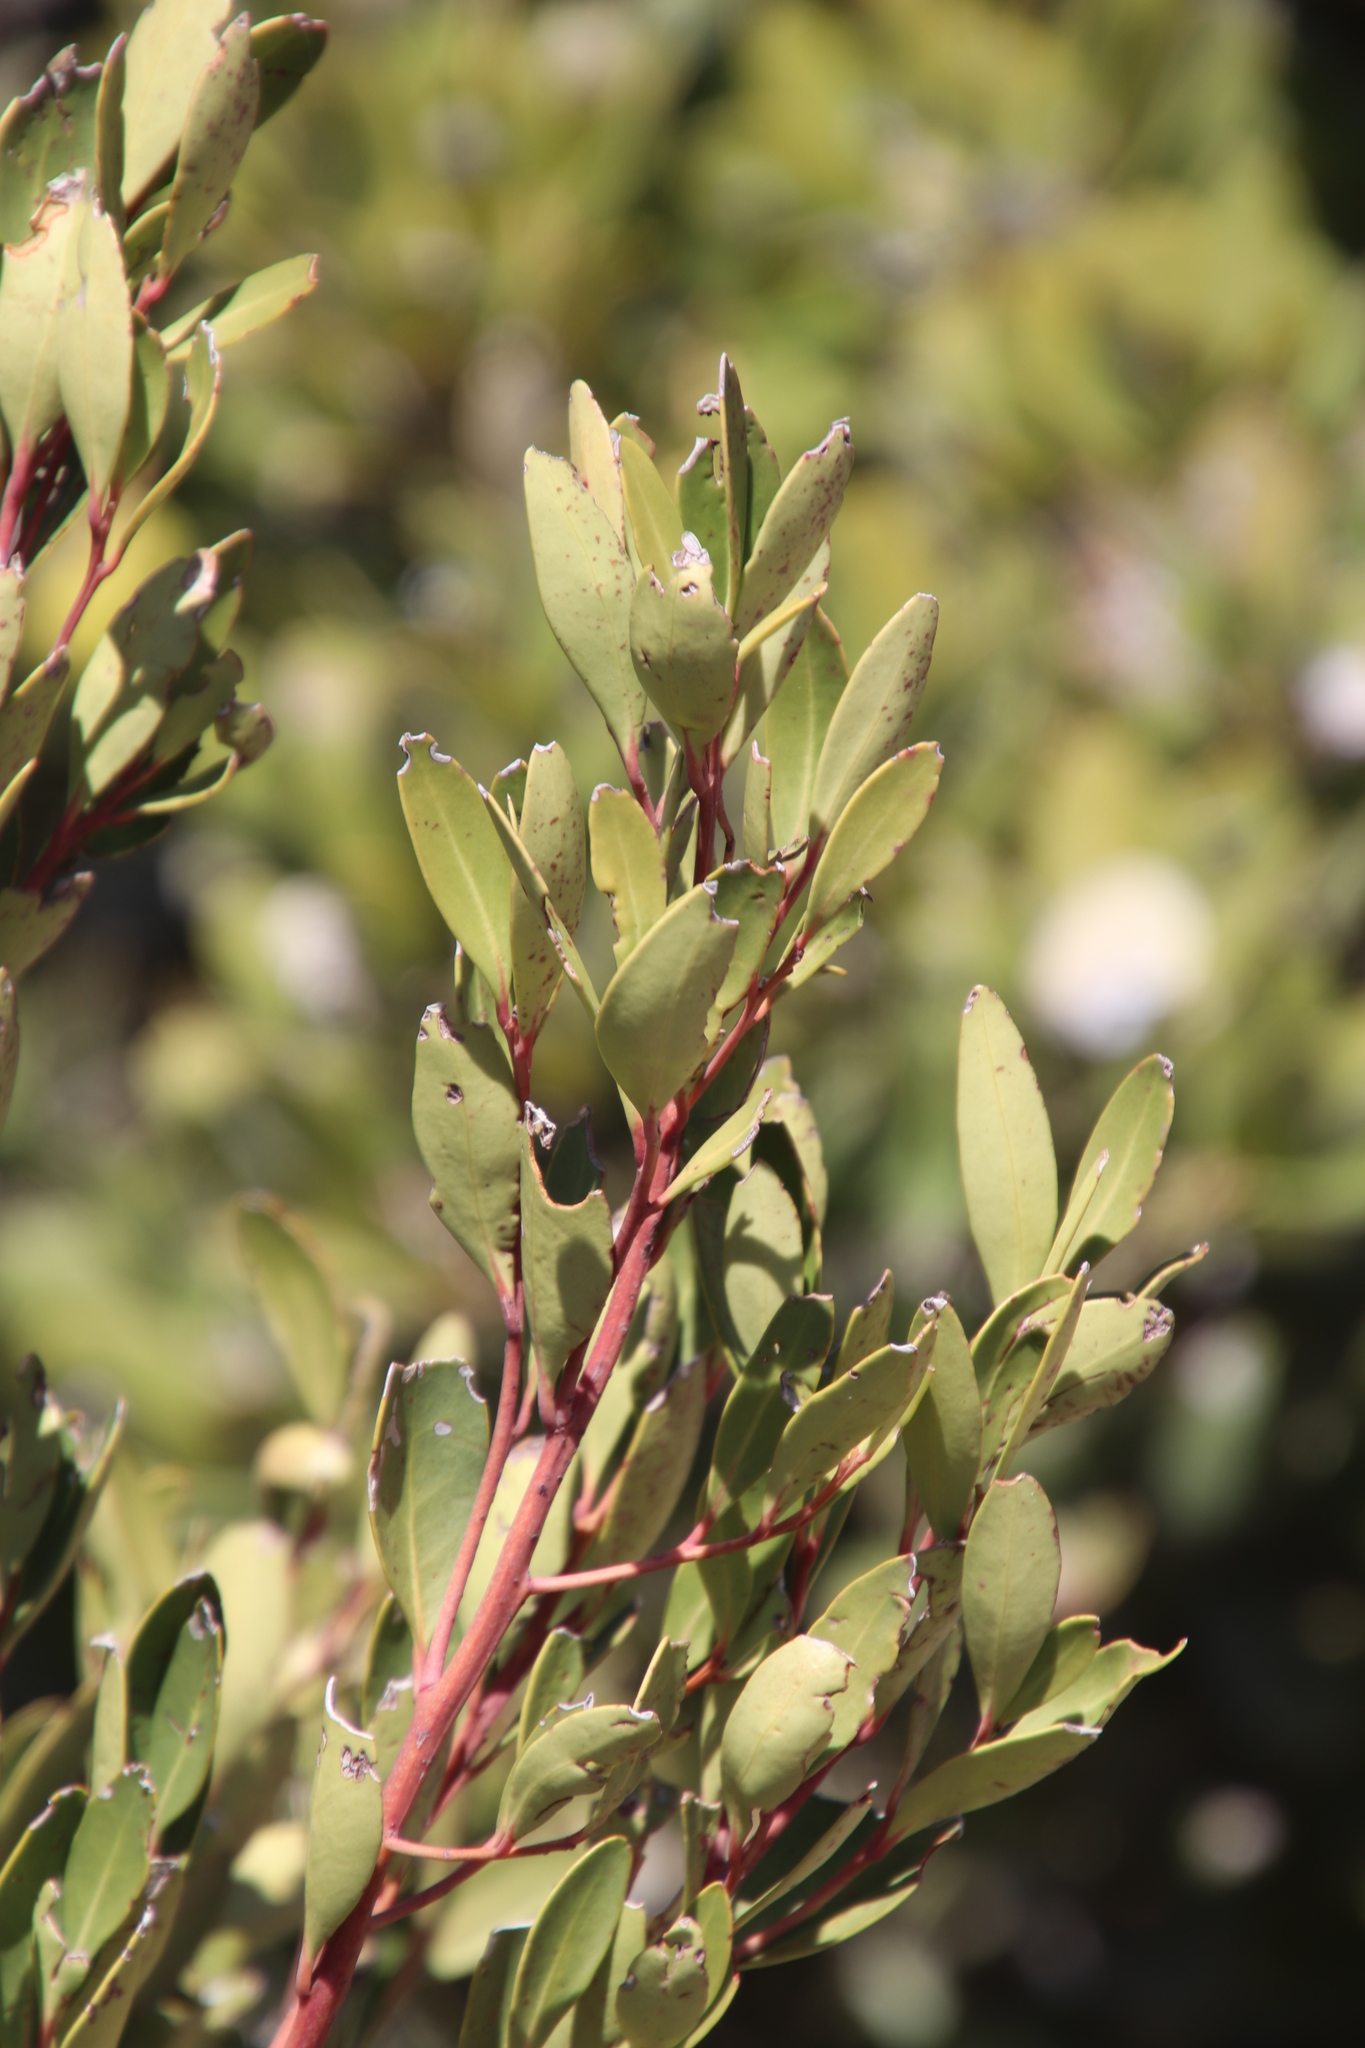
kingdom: Plantae
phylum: Tracheophyta
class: Magnoliopsida
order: Celastrales
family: Celastraceae
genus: Gymnosporia
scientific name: Gymnosporia laurina
